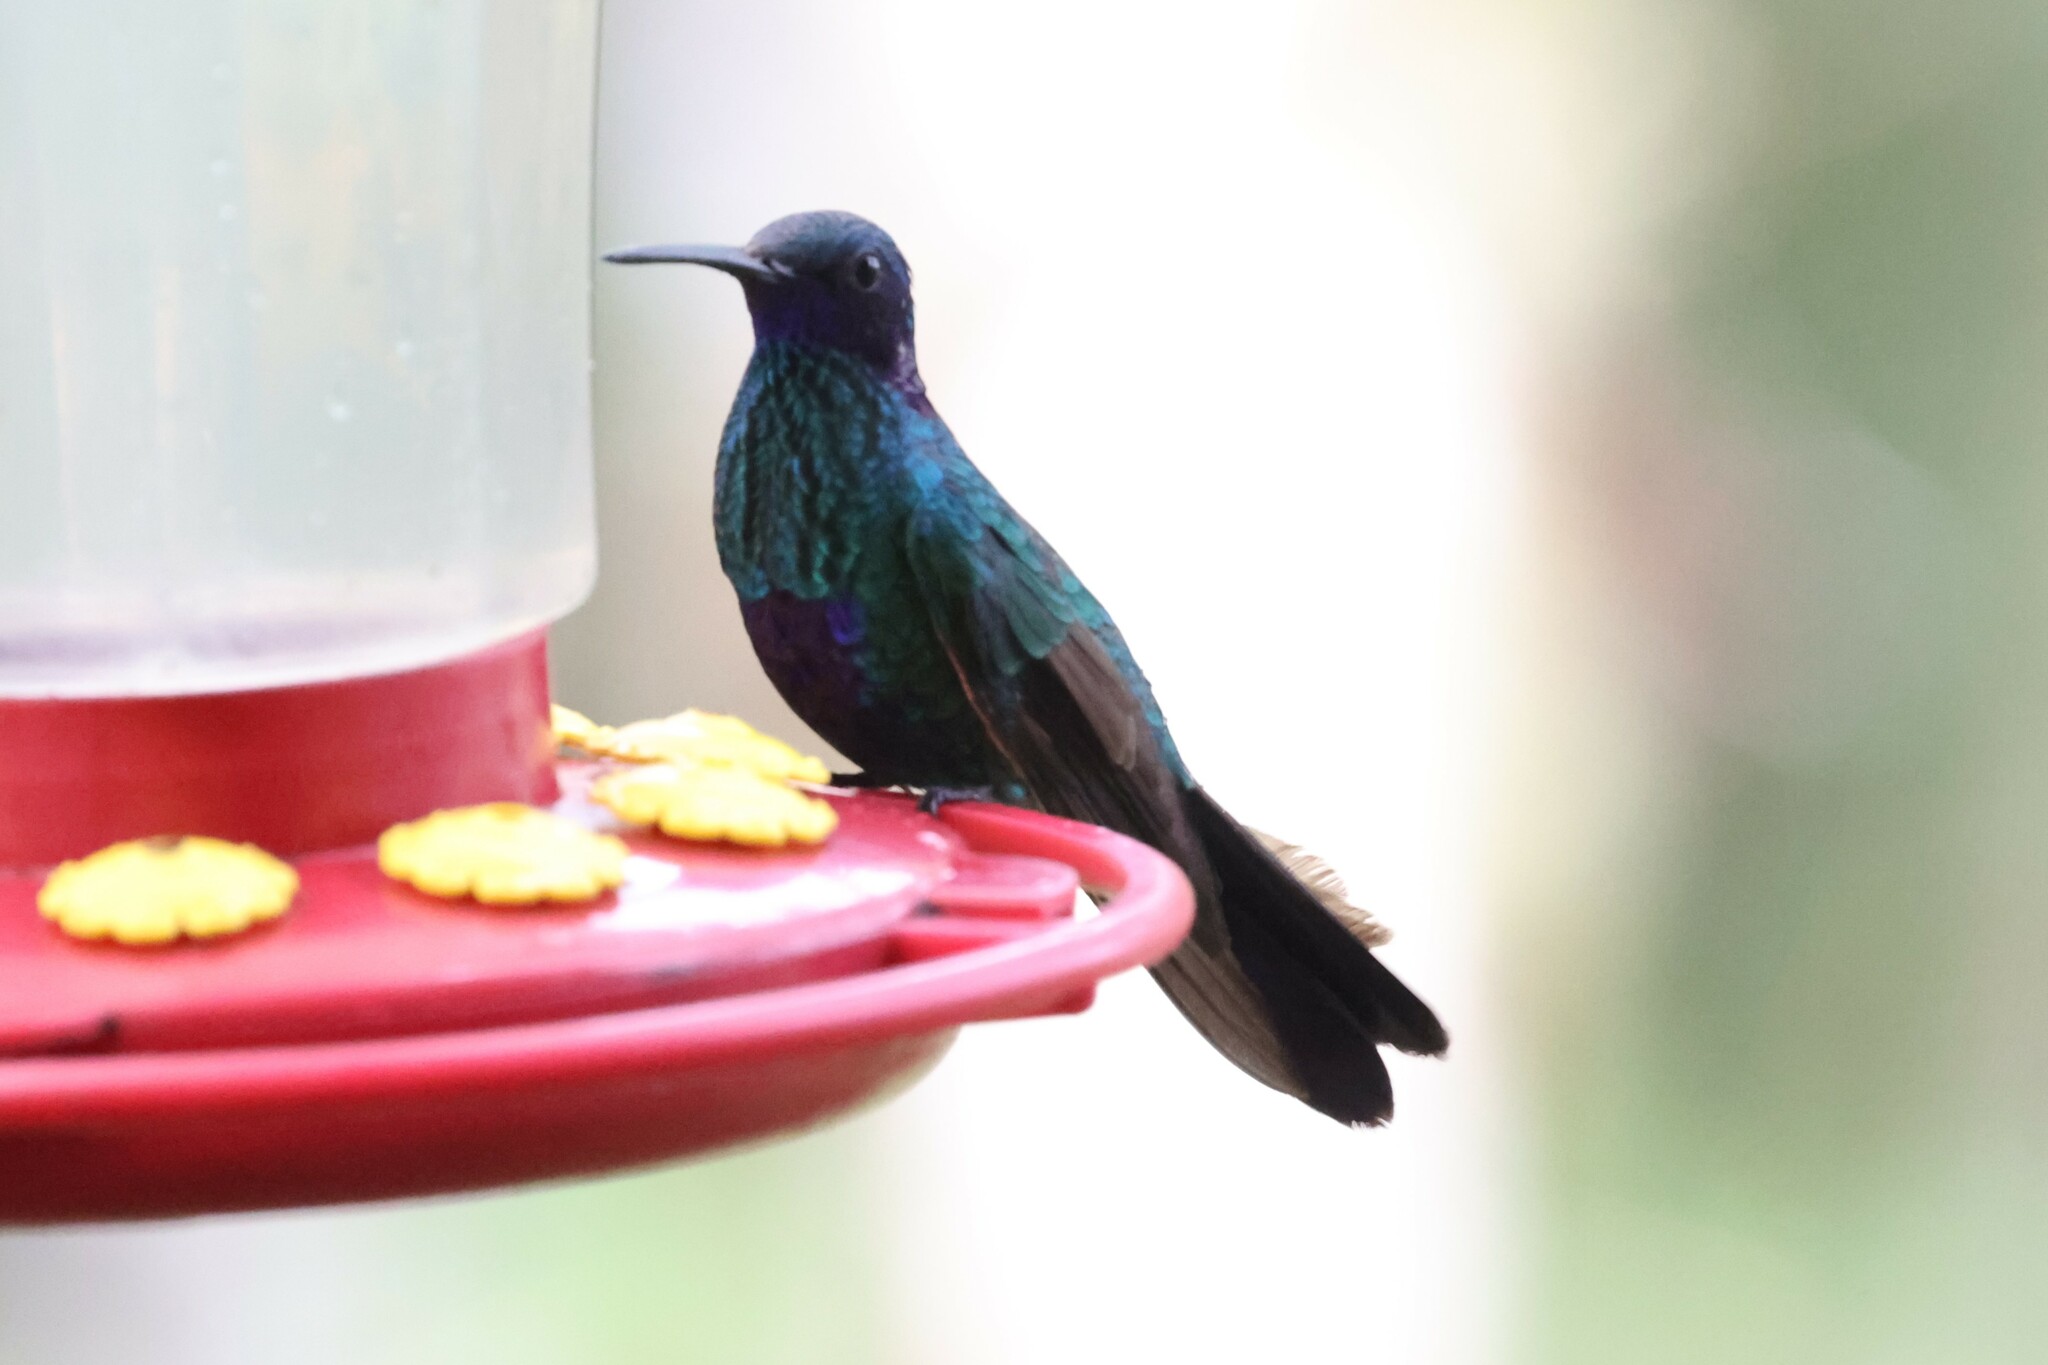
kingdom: Animalia
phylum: Chordata
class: Aves
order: Apodiformes
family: Trochilidae
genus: Colibri
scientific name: Colibri coruscans
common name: Sparkling violetear
